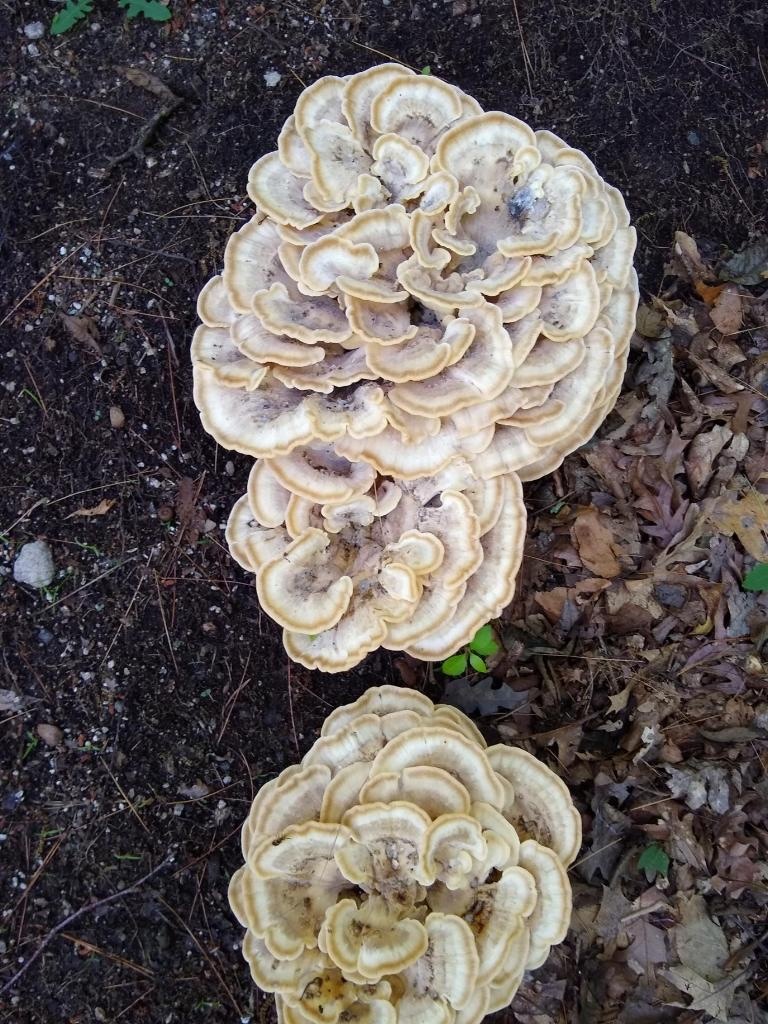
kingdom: Fungi
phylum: Basidiomycota
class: Agaricomycetes
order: Polyporales
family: Meripilaceae
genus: Meripilus
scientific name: Meripilus sumstinei
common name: Black-staining polypore
